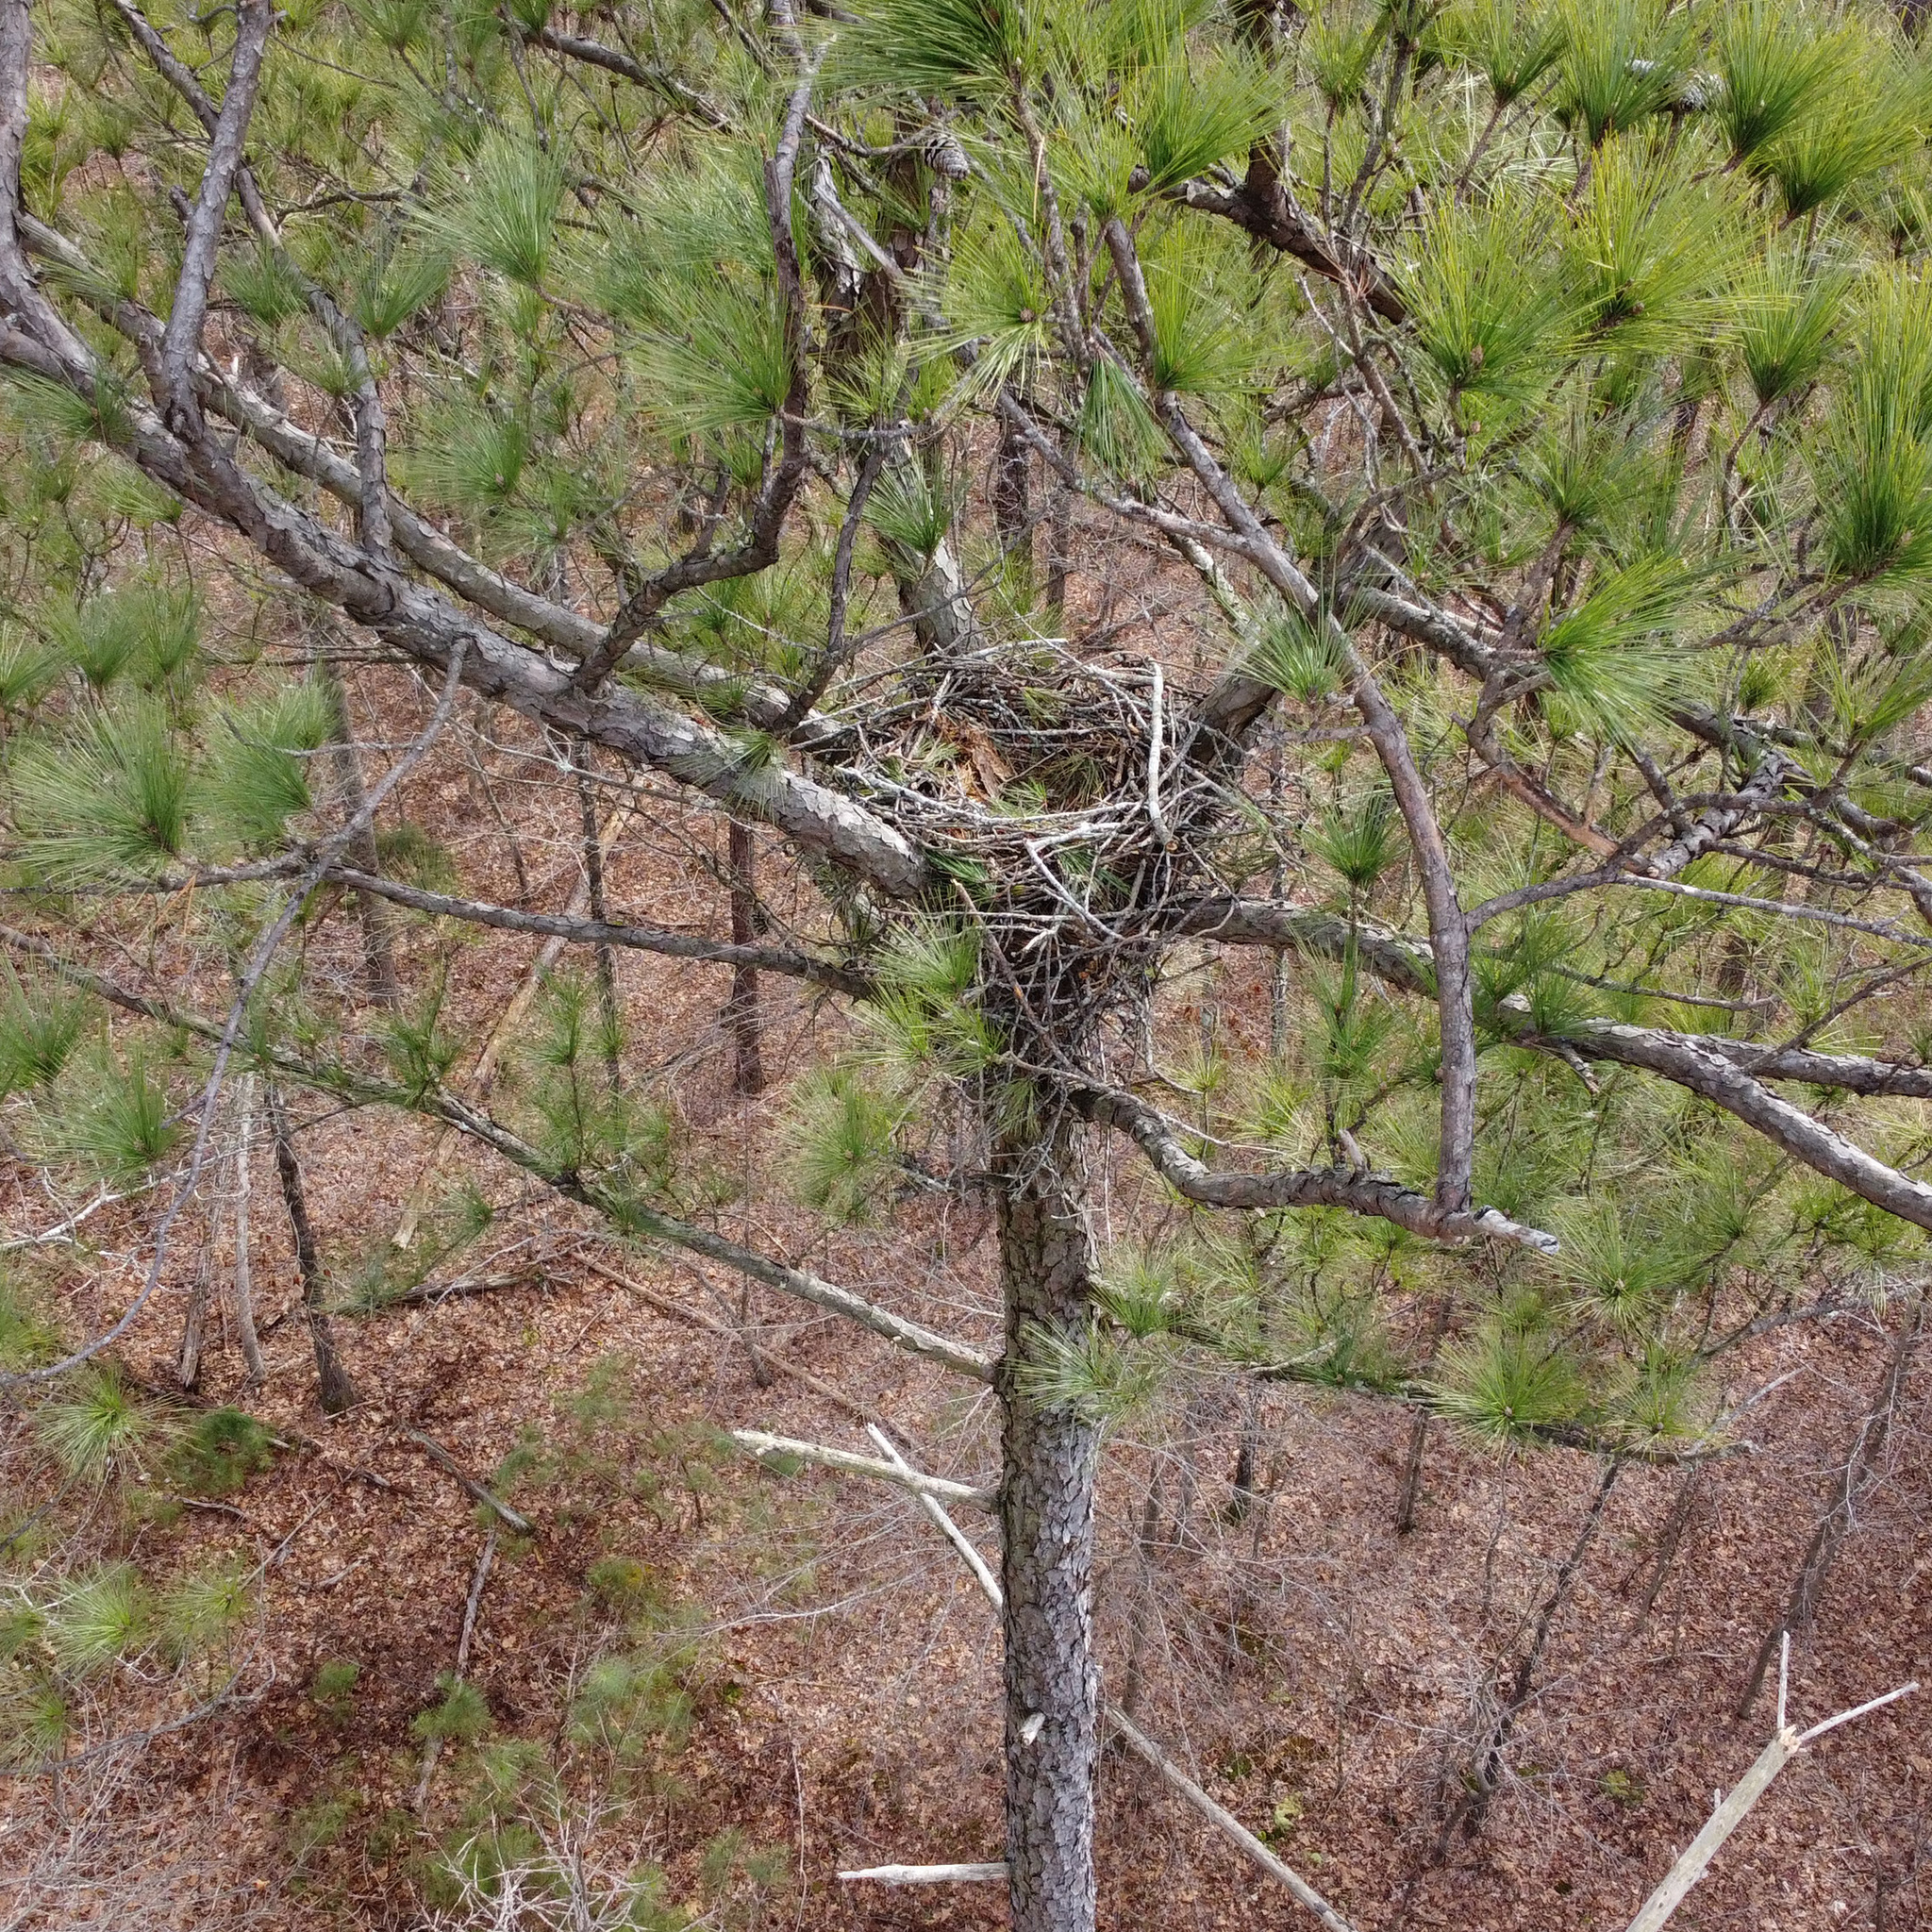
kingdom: Animalia
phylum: Chordata
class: Aves
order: Accipitriformes
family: Accipitridae
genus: Buteo
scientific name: Buteo jamaicensis
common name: Red-tailed hawk
